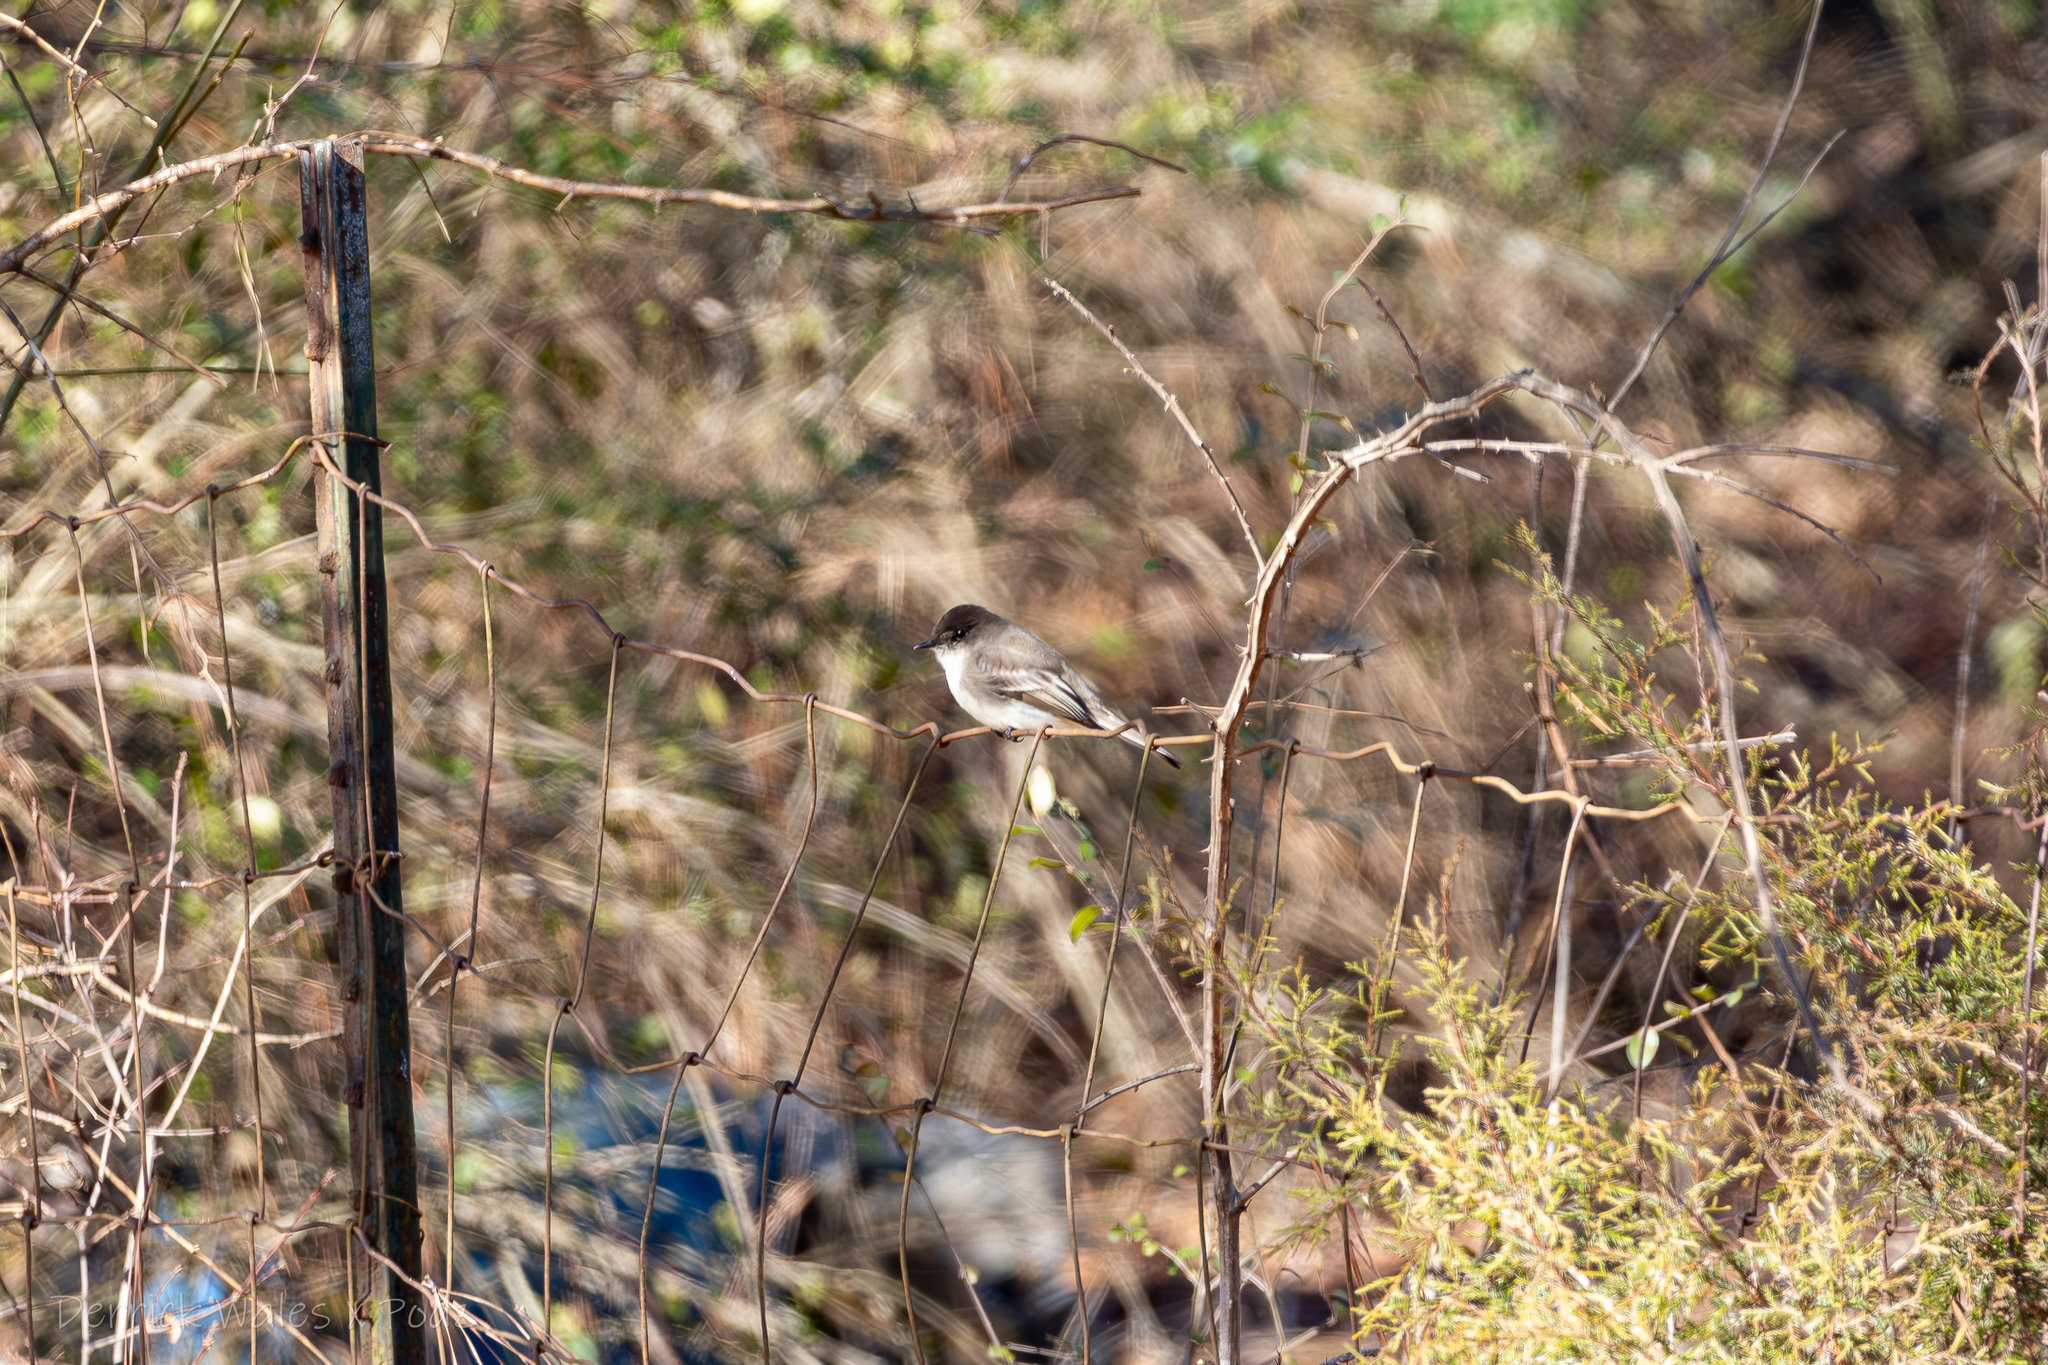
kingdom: Animalia
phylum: Chordata
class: Aves
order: Passeriformes
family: Tyrannidae
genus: Sayornis
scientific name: Sayornis phoebe
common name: Eastern phoebe
